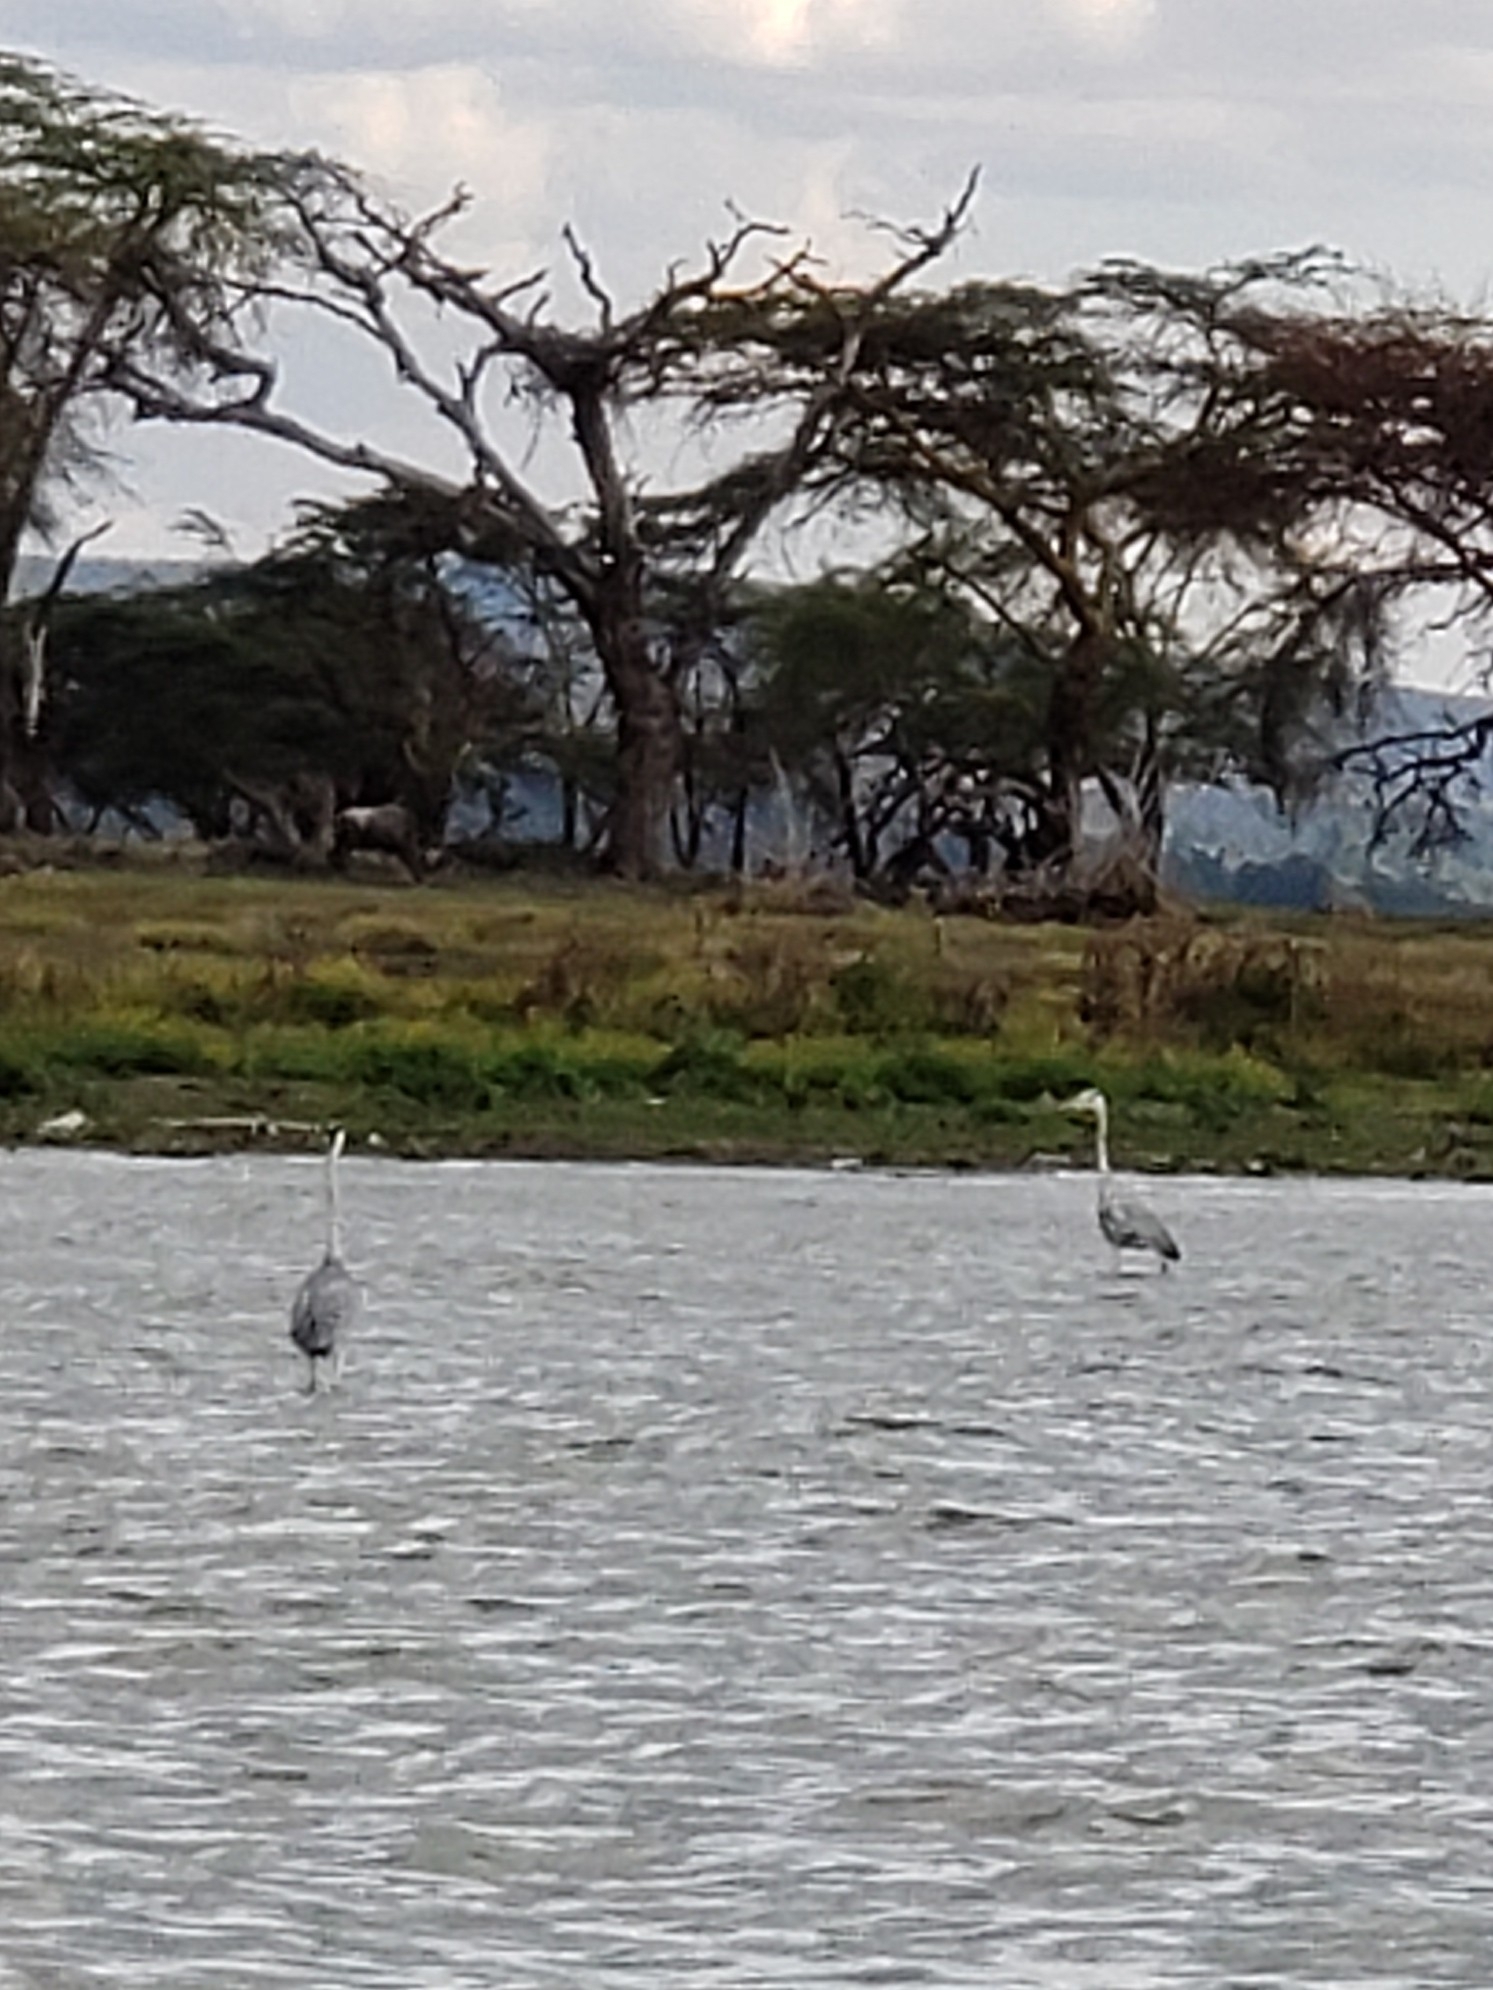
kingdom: Animalia
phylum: Chordata
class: Aves
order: Pelecaniformes
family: Ardeidae
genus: Ardea
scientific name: Ardea cinerea
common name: Grey heron
